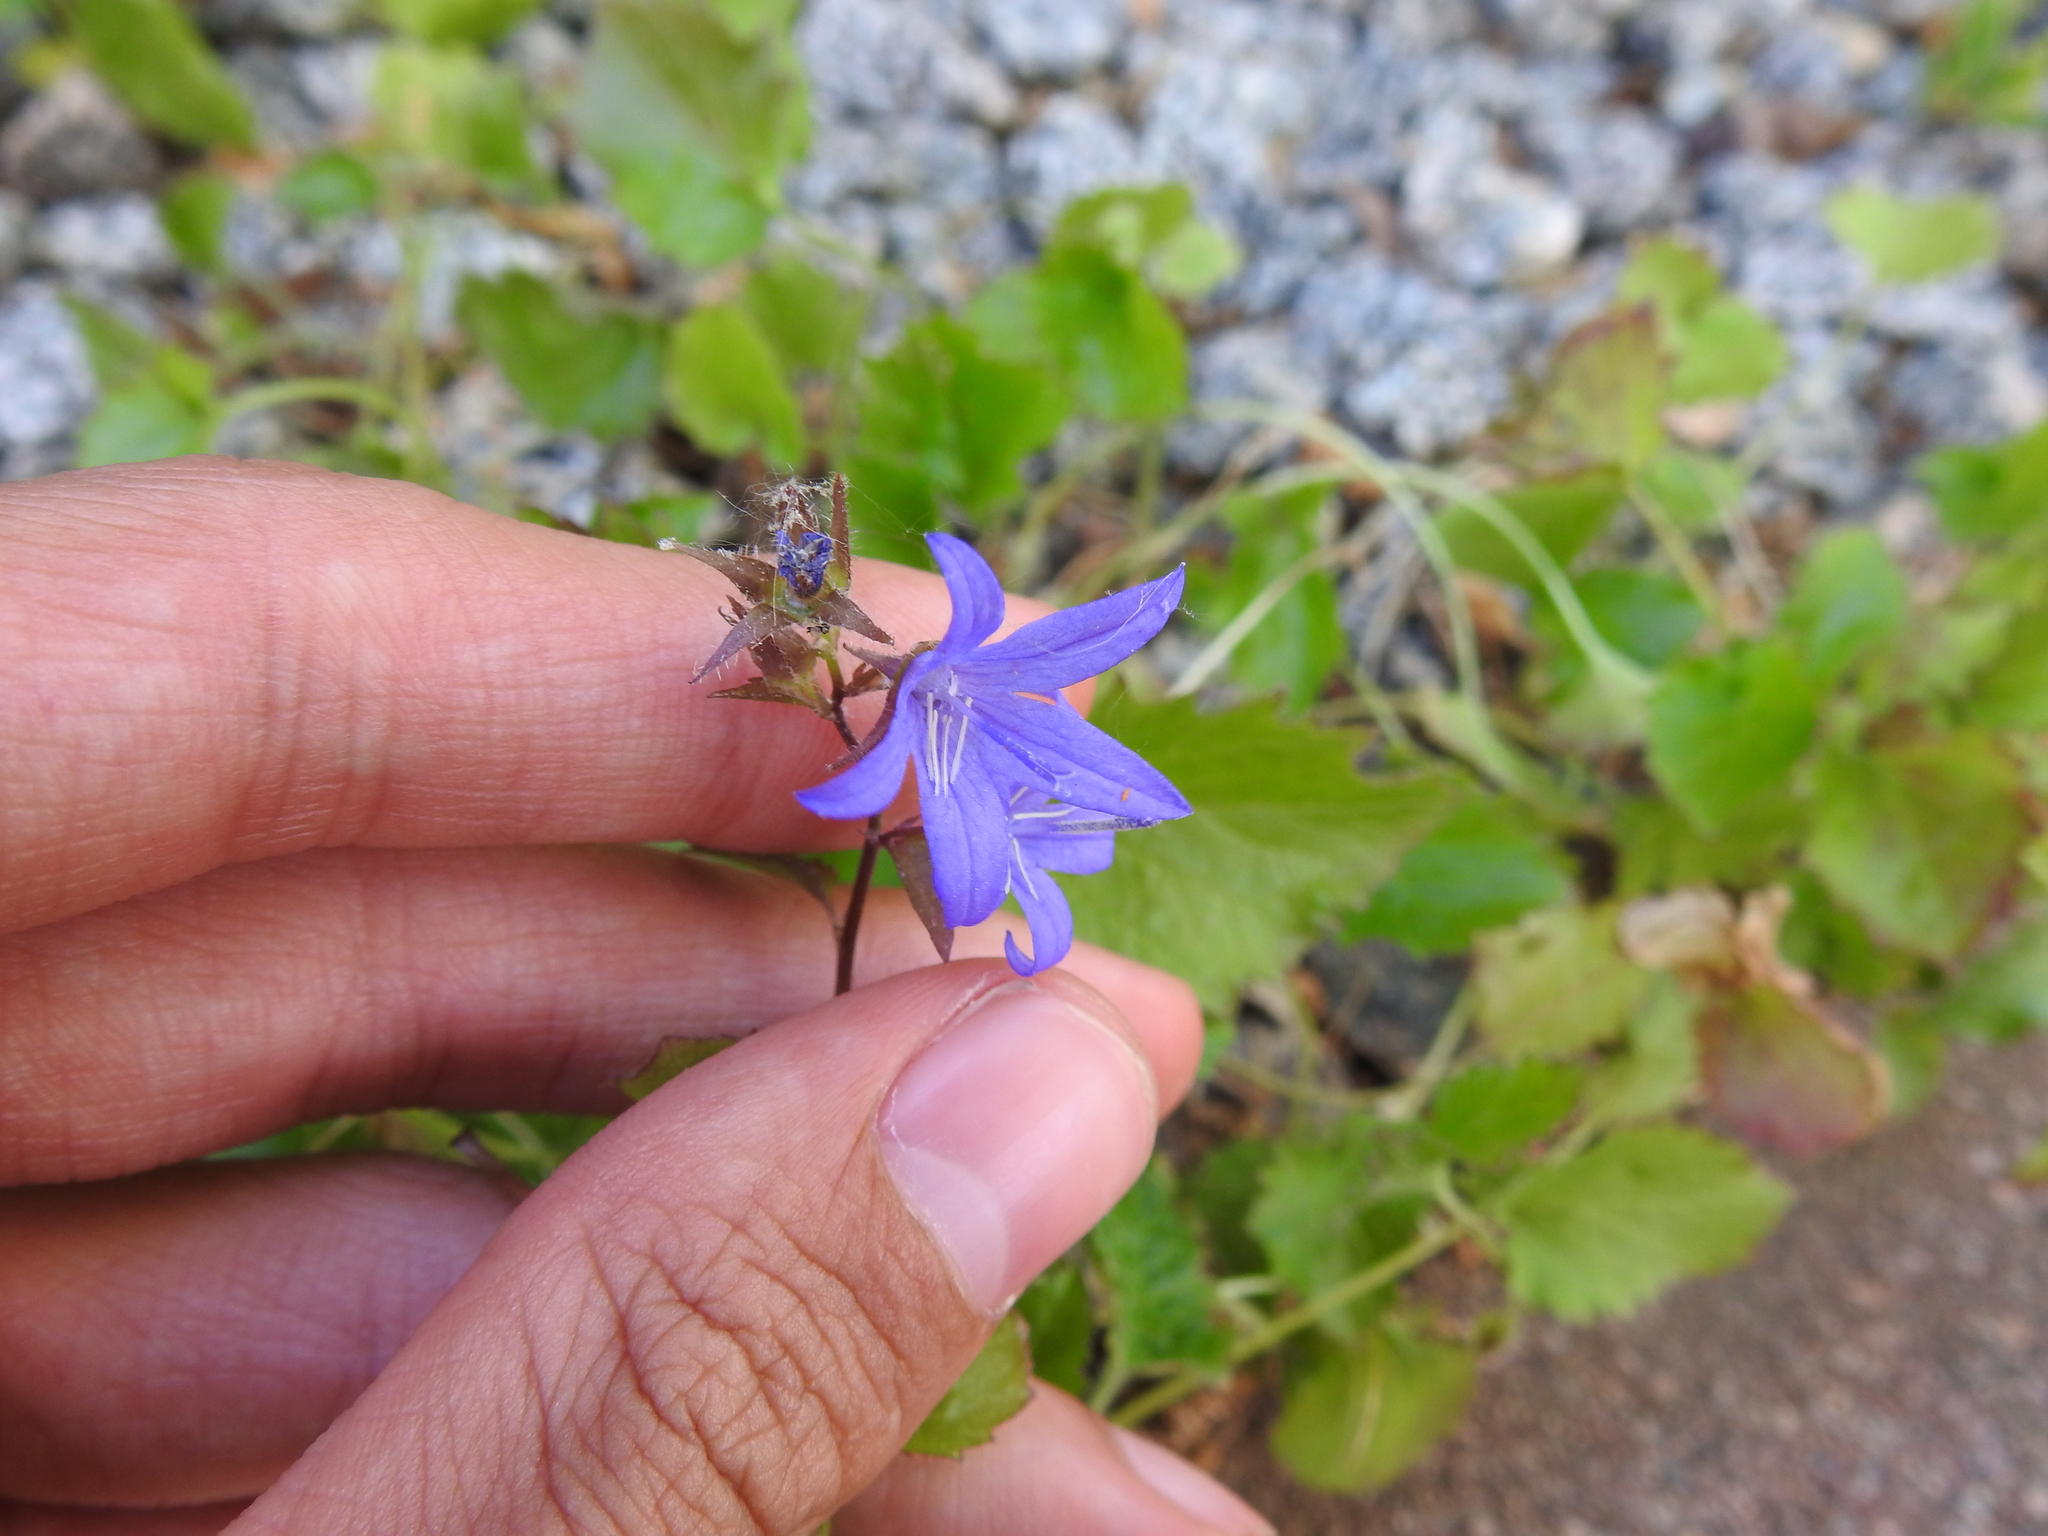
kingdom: Plantae
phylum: Tracheophyta
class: Magnoliopsida
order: Asterales
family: Campanulaceae
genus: Campanula
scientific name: Campanula poscharskyana
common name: Trailing bellflower
